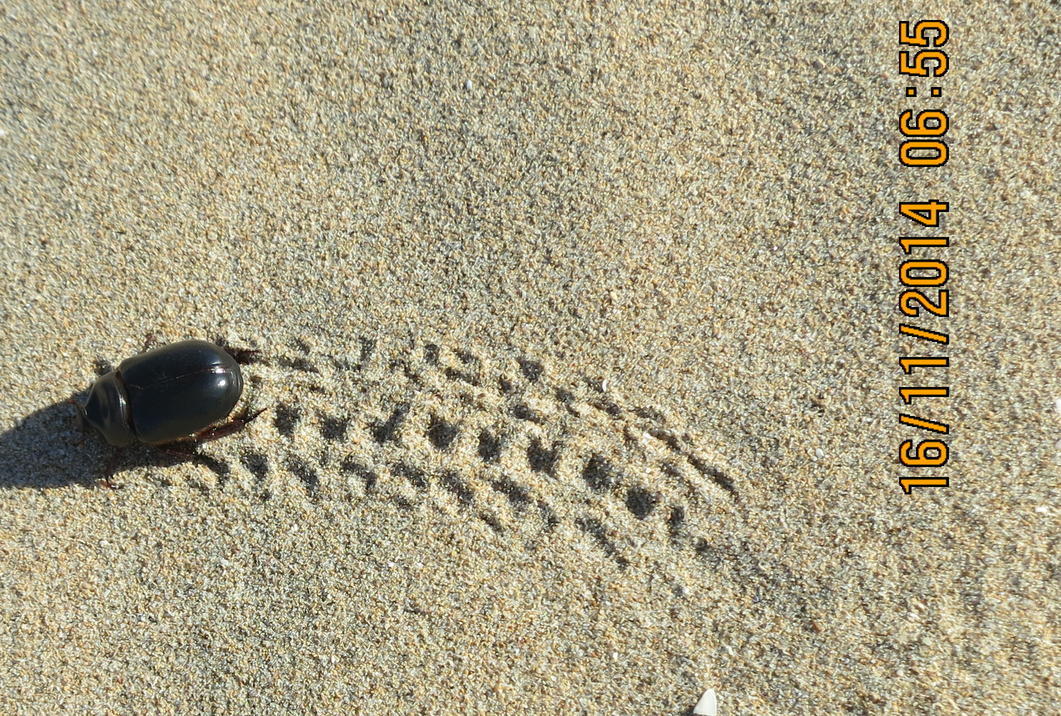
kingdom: Animalia
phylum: Arthropoda
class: Insecta
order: Coleoptera
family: Scarabaeidae
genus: Pericoptus
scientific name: Pericoptus truncatus
